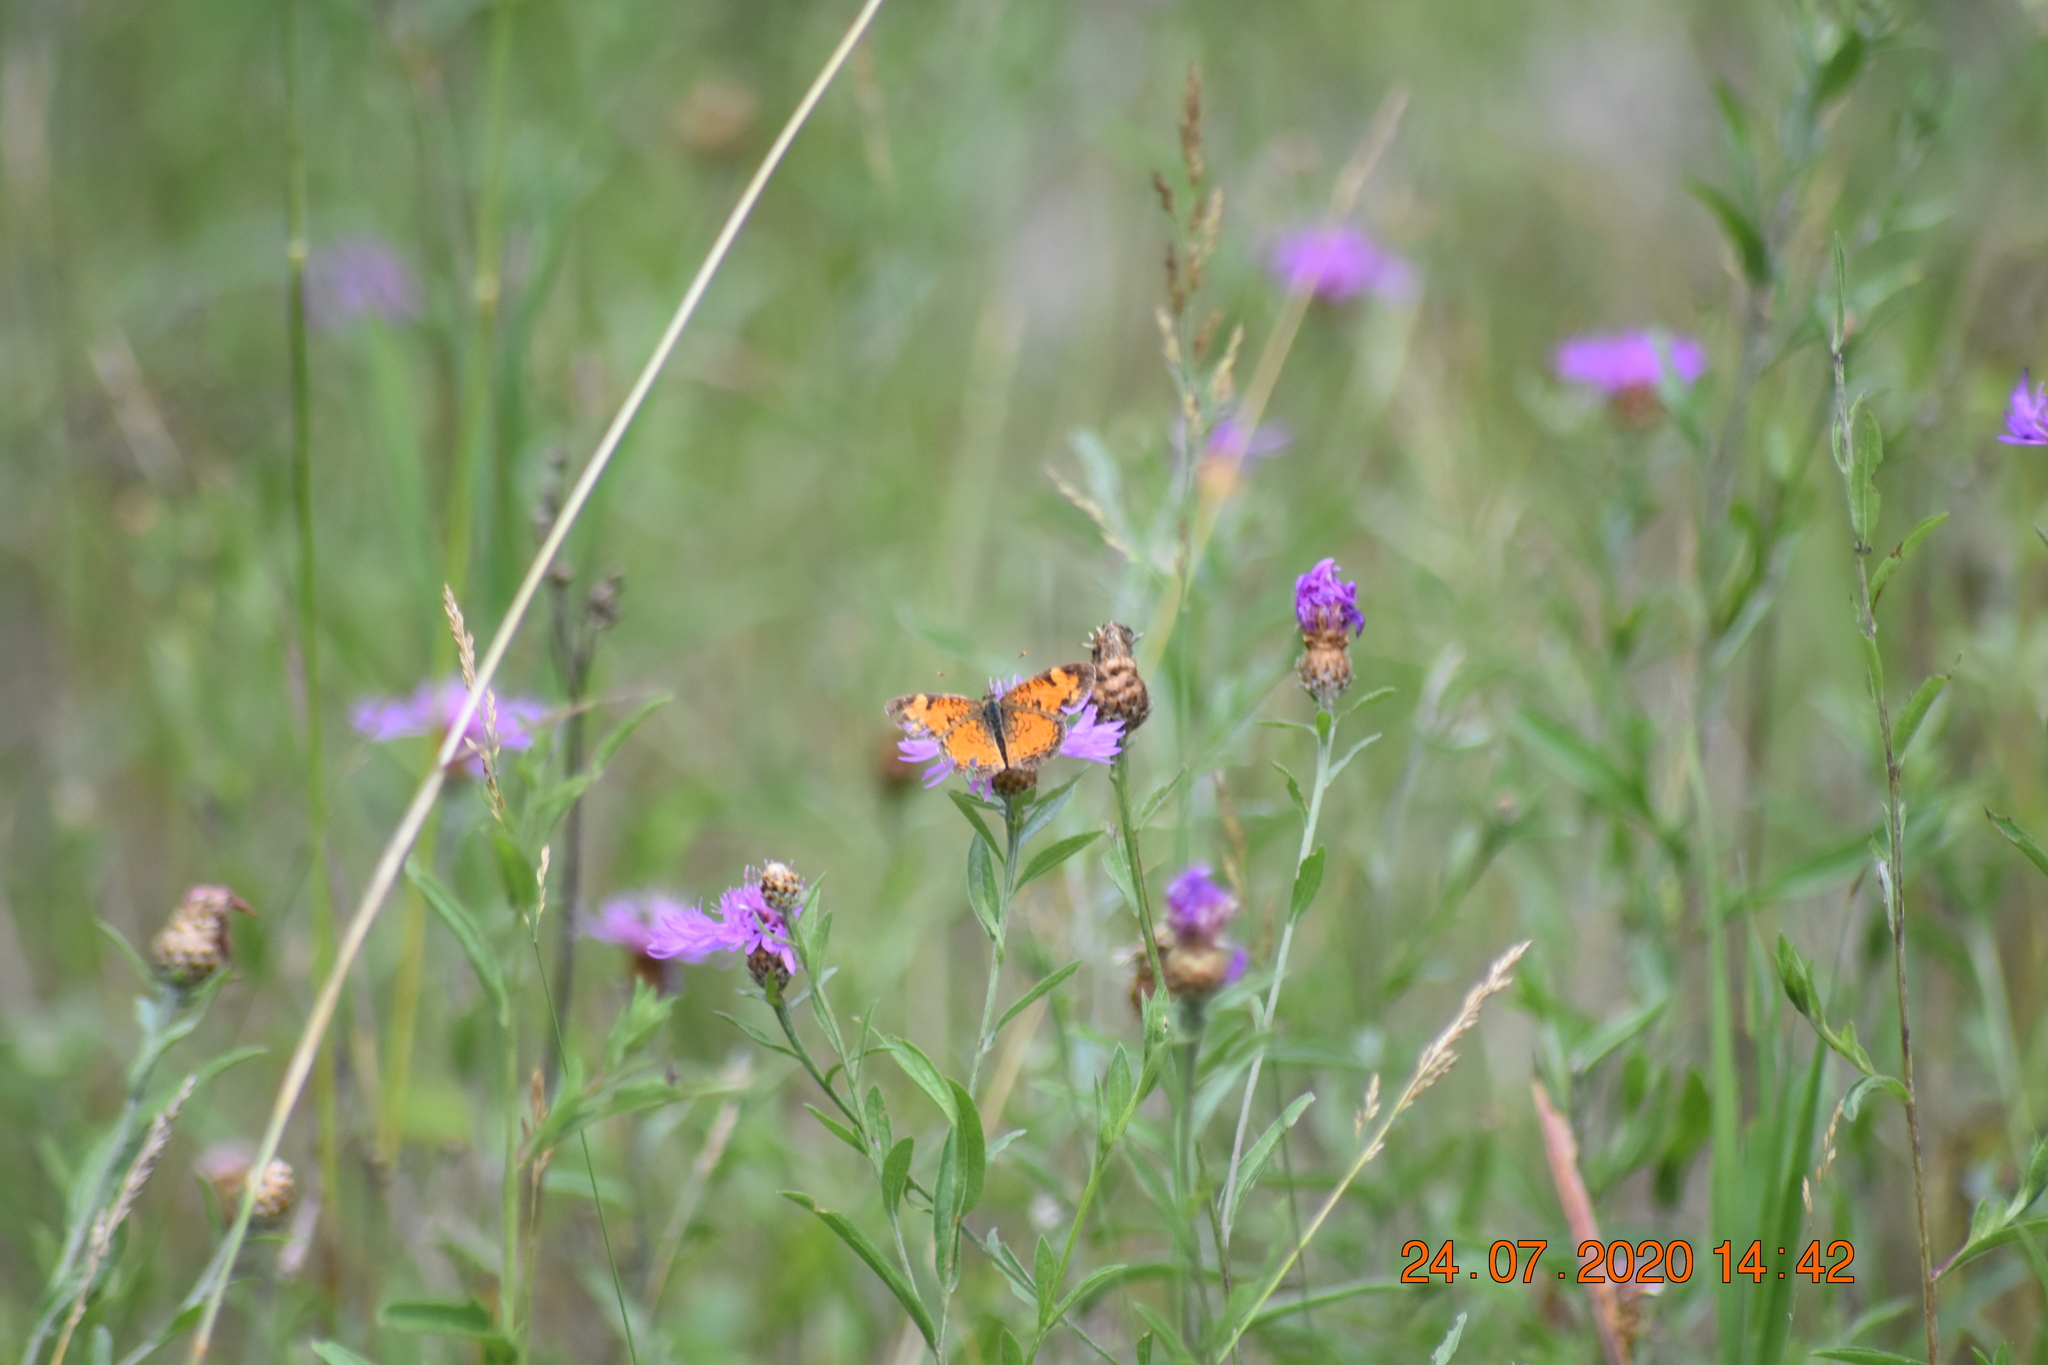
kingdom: Animalia
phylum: Arthropoda
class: Insecta
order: Lepidoptera
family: Nymphalidae
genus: Phyciodes
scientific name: Phyciodes tharos
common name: Pearl crescent
